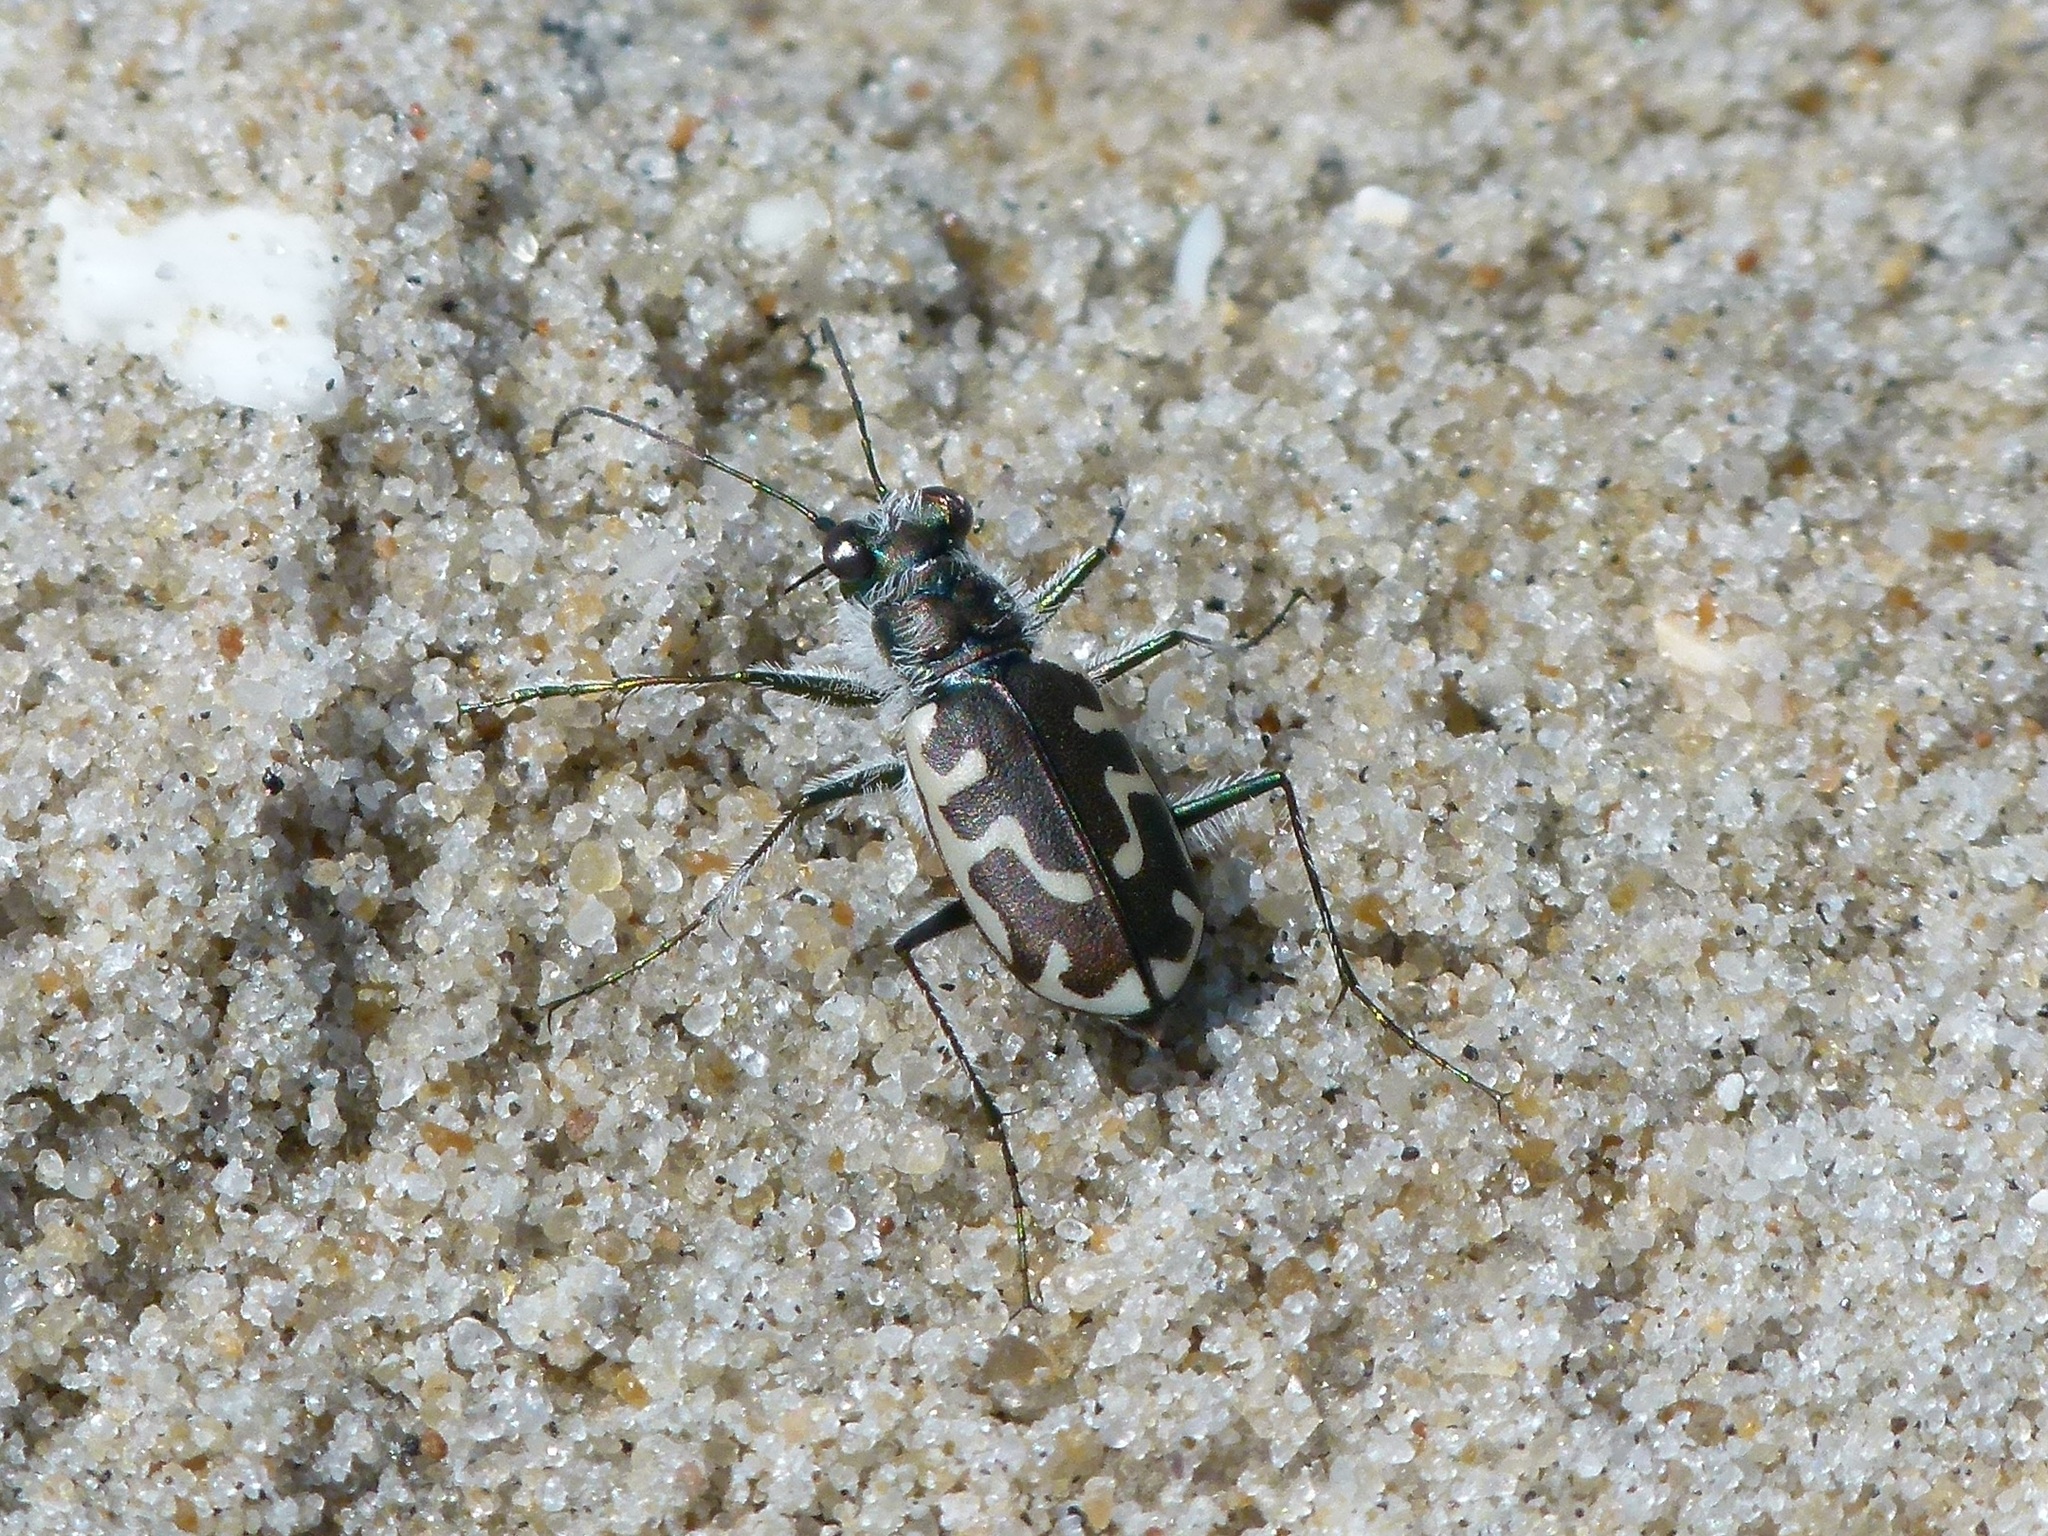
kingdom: Animalia
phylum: Arthropoda
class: Insecta
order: Coleoptera
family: Carabidae
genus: Cicindela
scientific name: Cicindela hirticollis
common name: Hairy-necked tiger beetle
